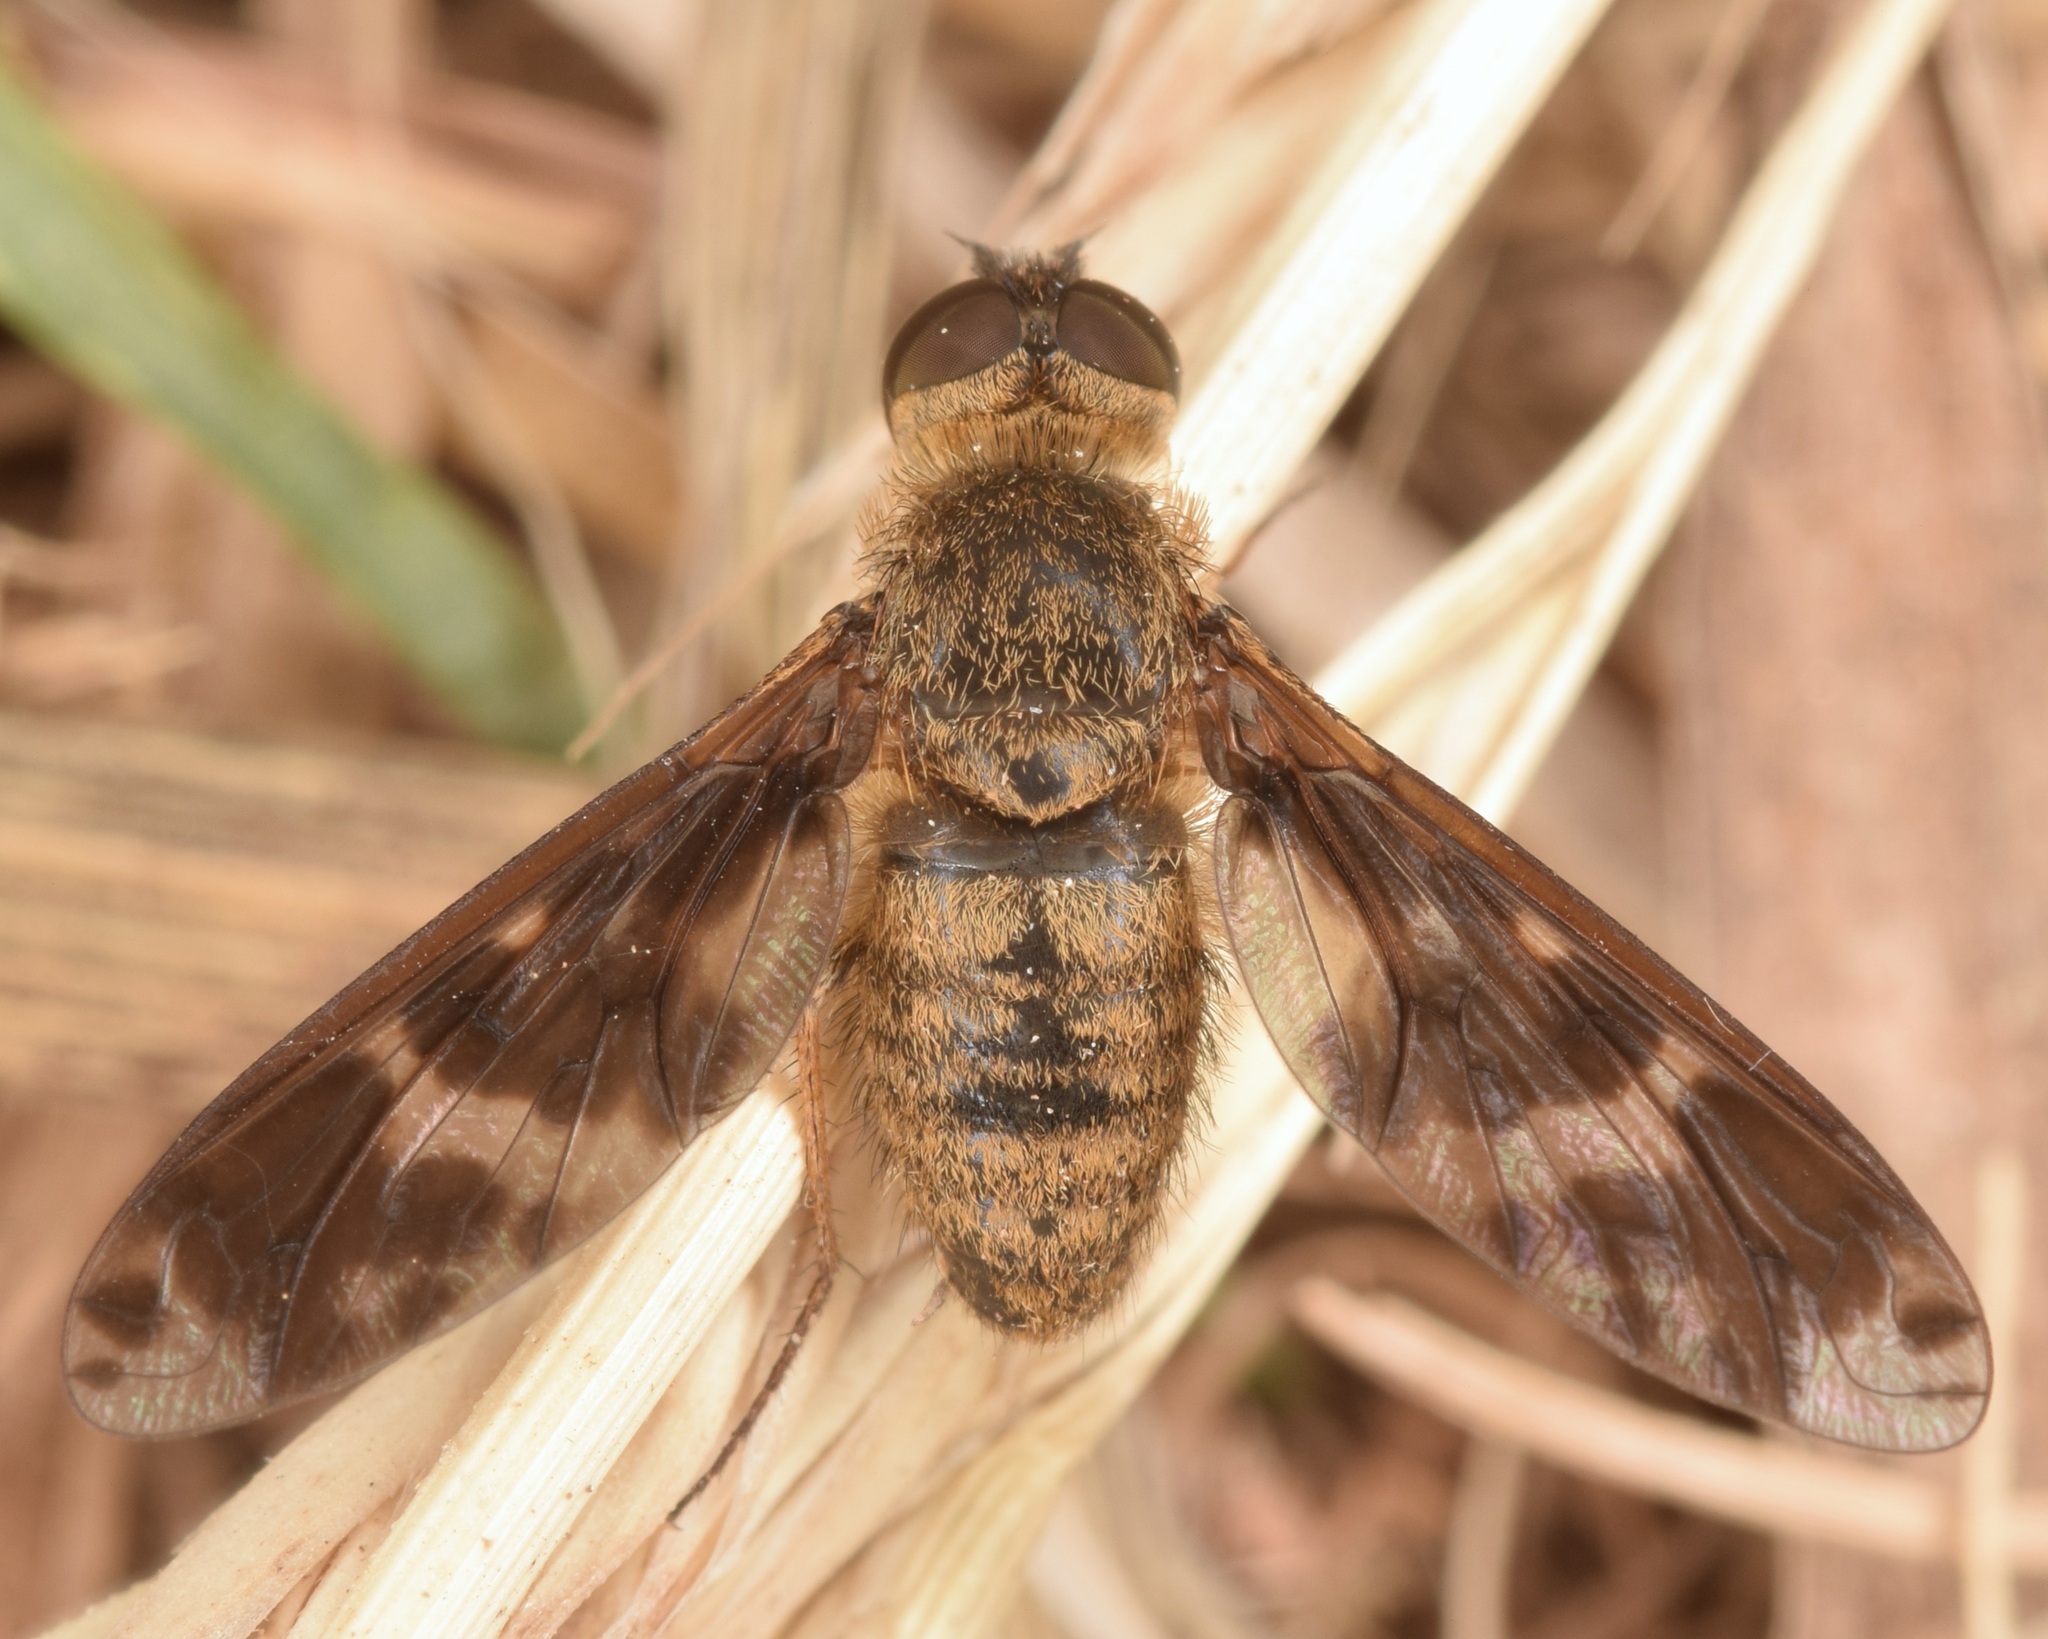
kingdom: Animalia
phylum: Arthropoda
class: Insecta
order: Diptera
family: Bombyliidae
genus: Dipalta
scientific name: Dipalta serpentina
